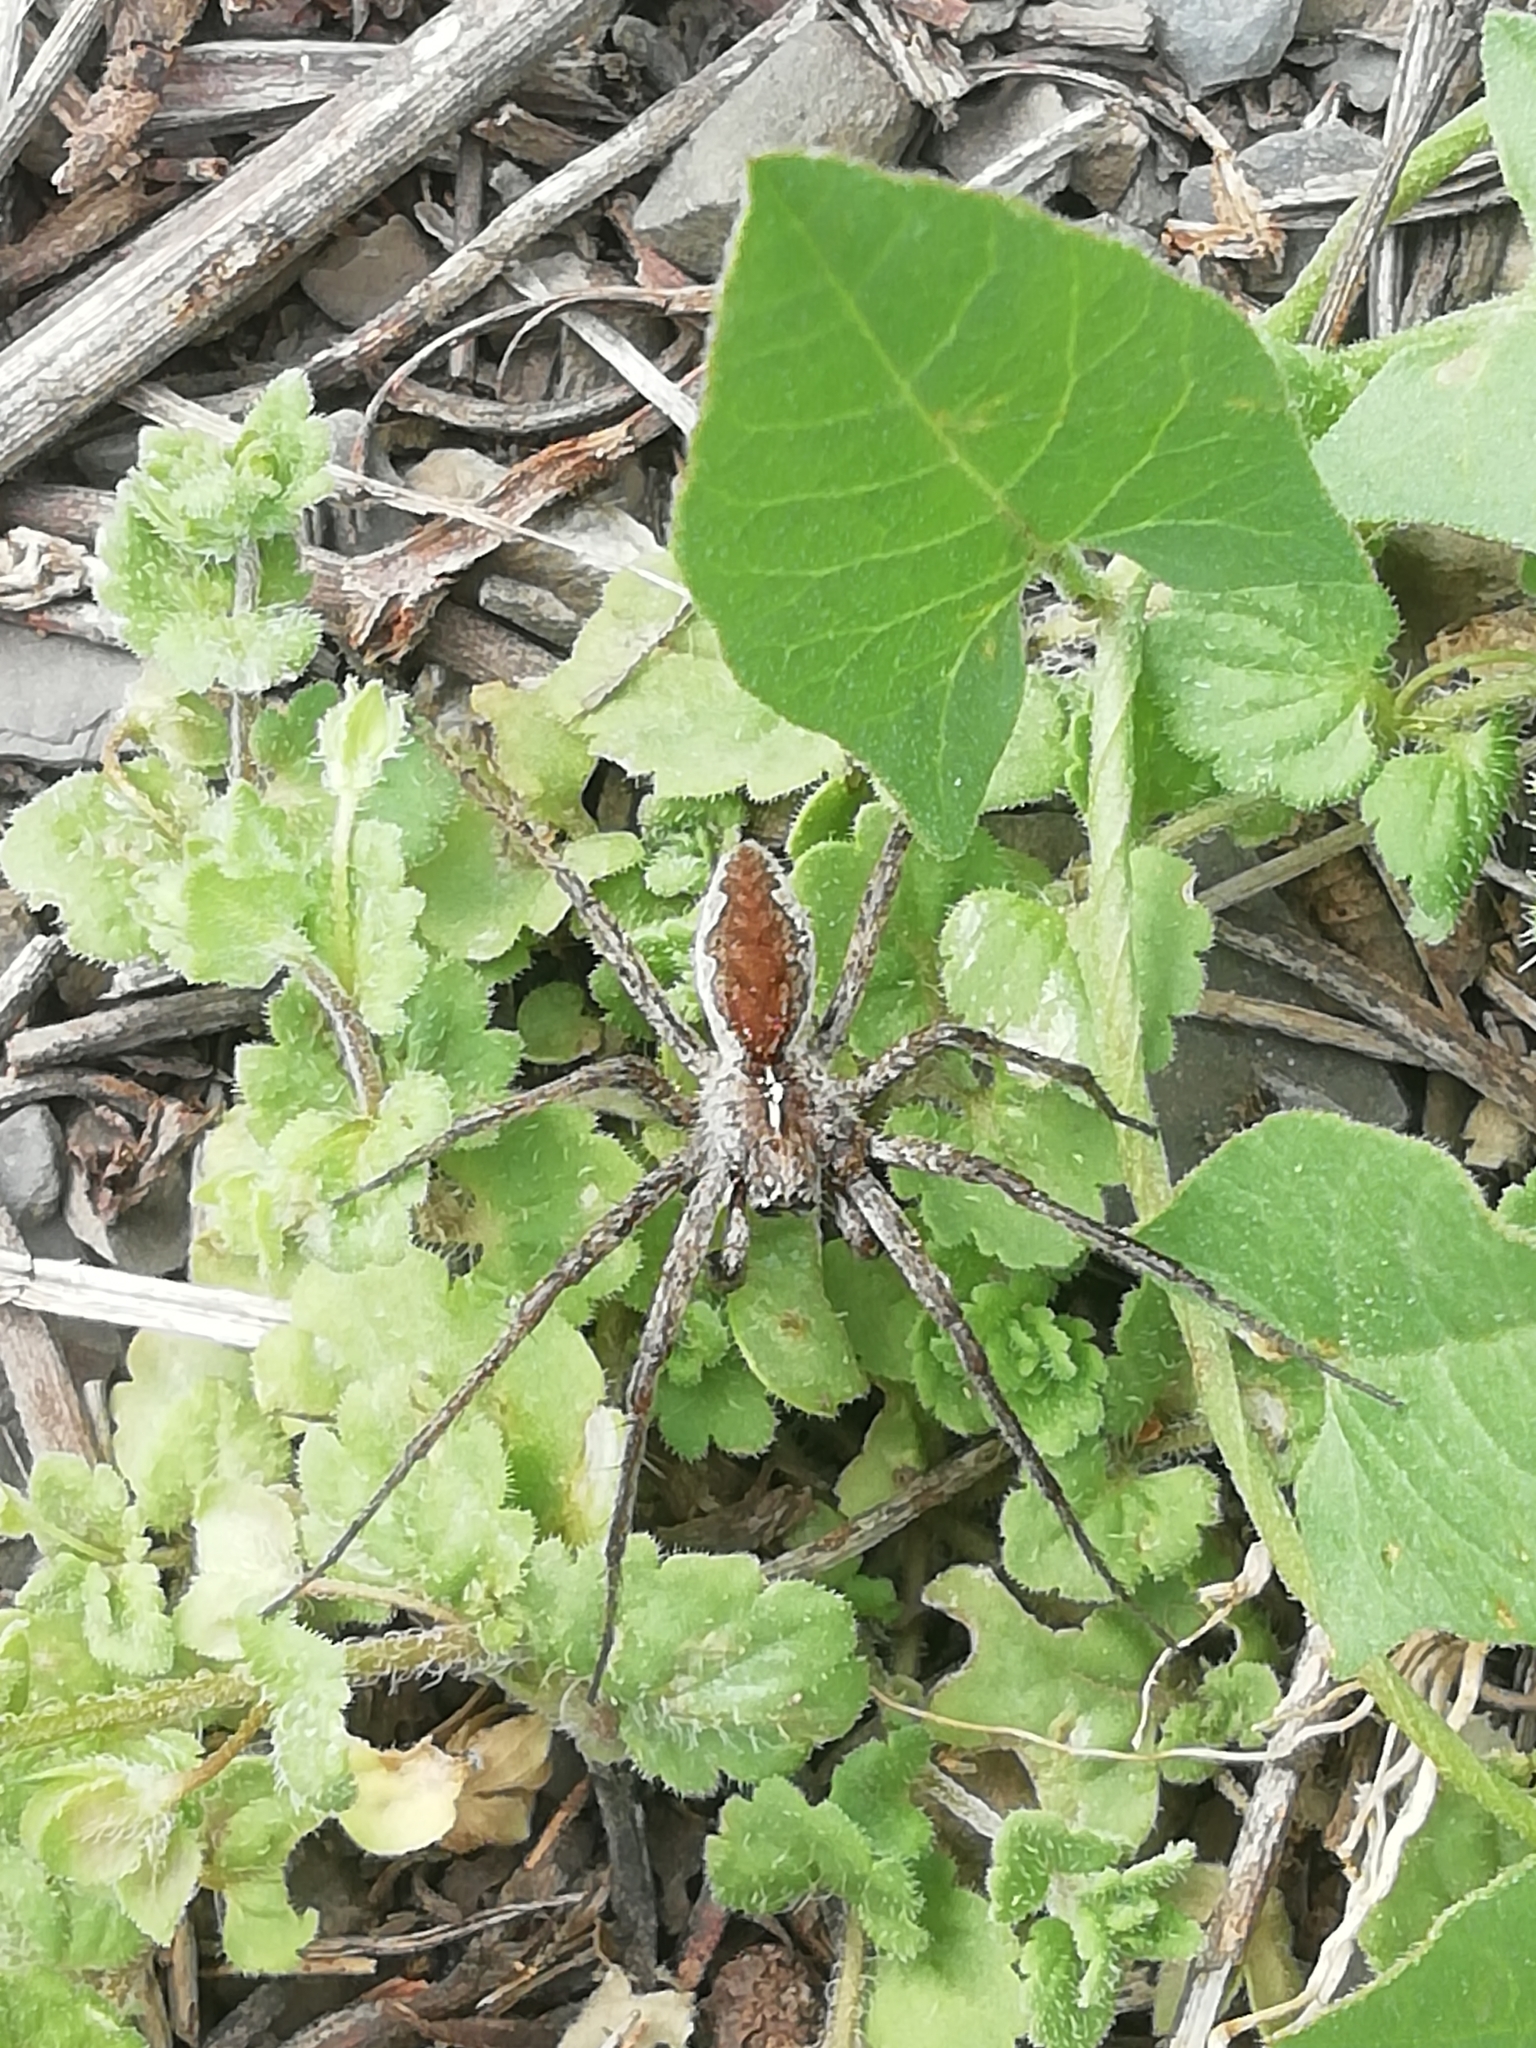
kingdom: Animalia
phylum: Arthropoda
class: Arachnida
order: Araneae
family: Pisauridae
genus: Pisaura
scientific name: Pisaura
